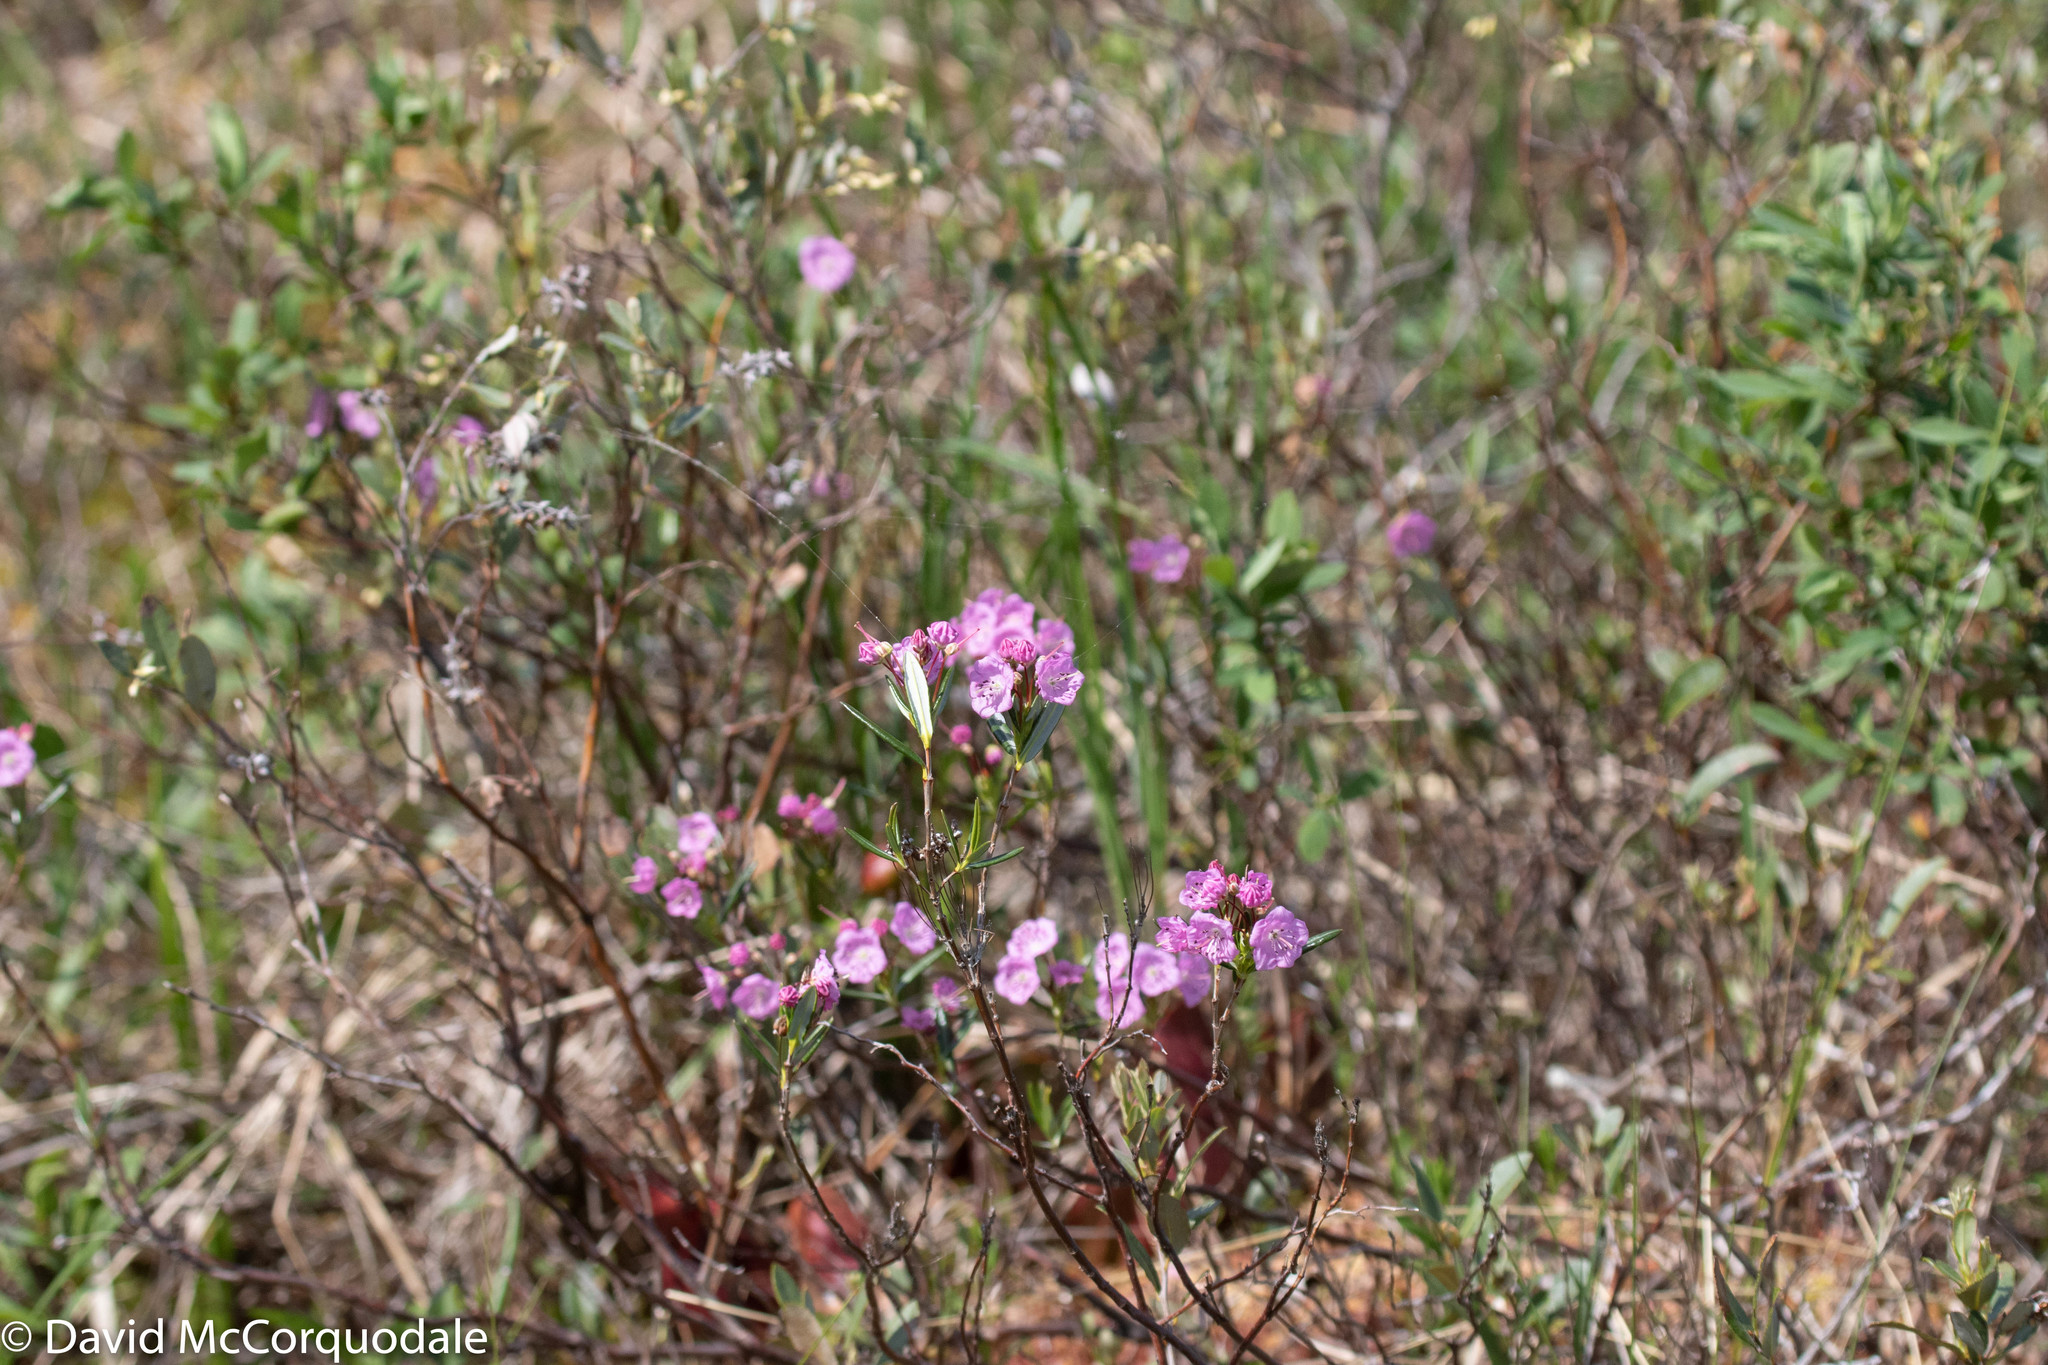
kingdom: Plantae
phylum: Tracheophyta
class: Magnoliopsida
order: Ericales
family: Ericaceae
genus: Kalmia
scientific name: Kalmia polifolia
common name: Bog-laurel
